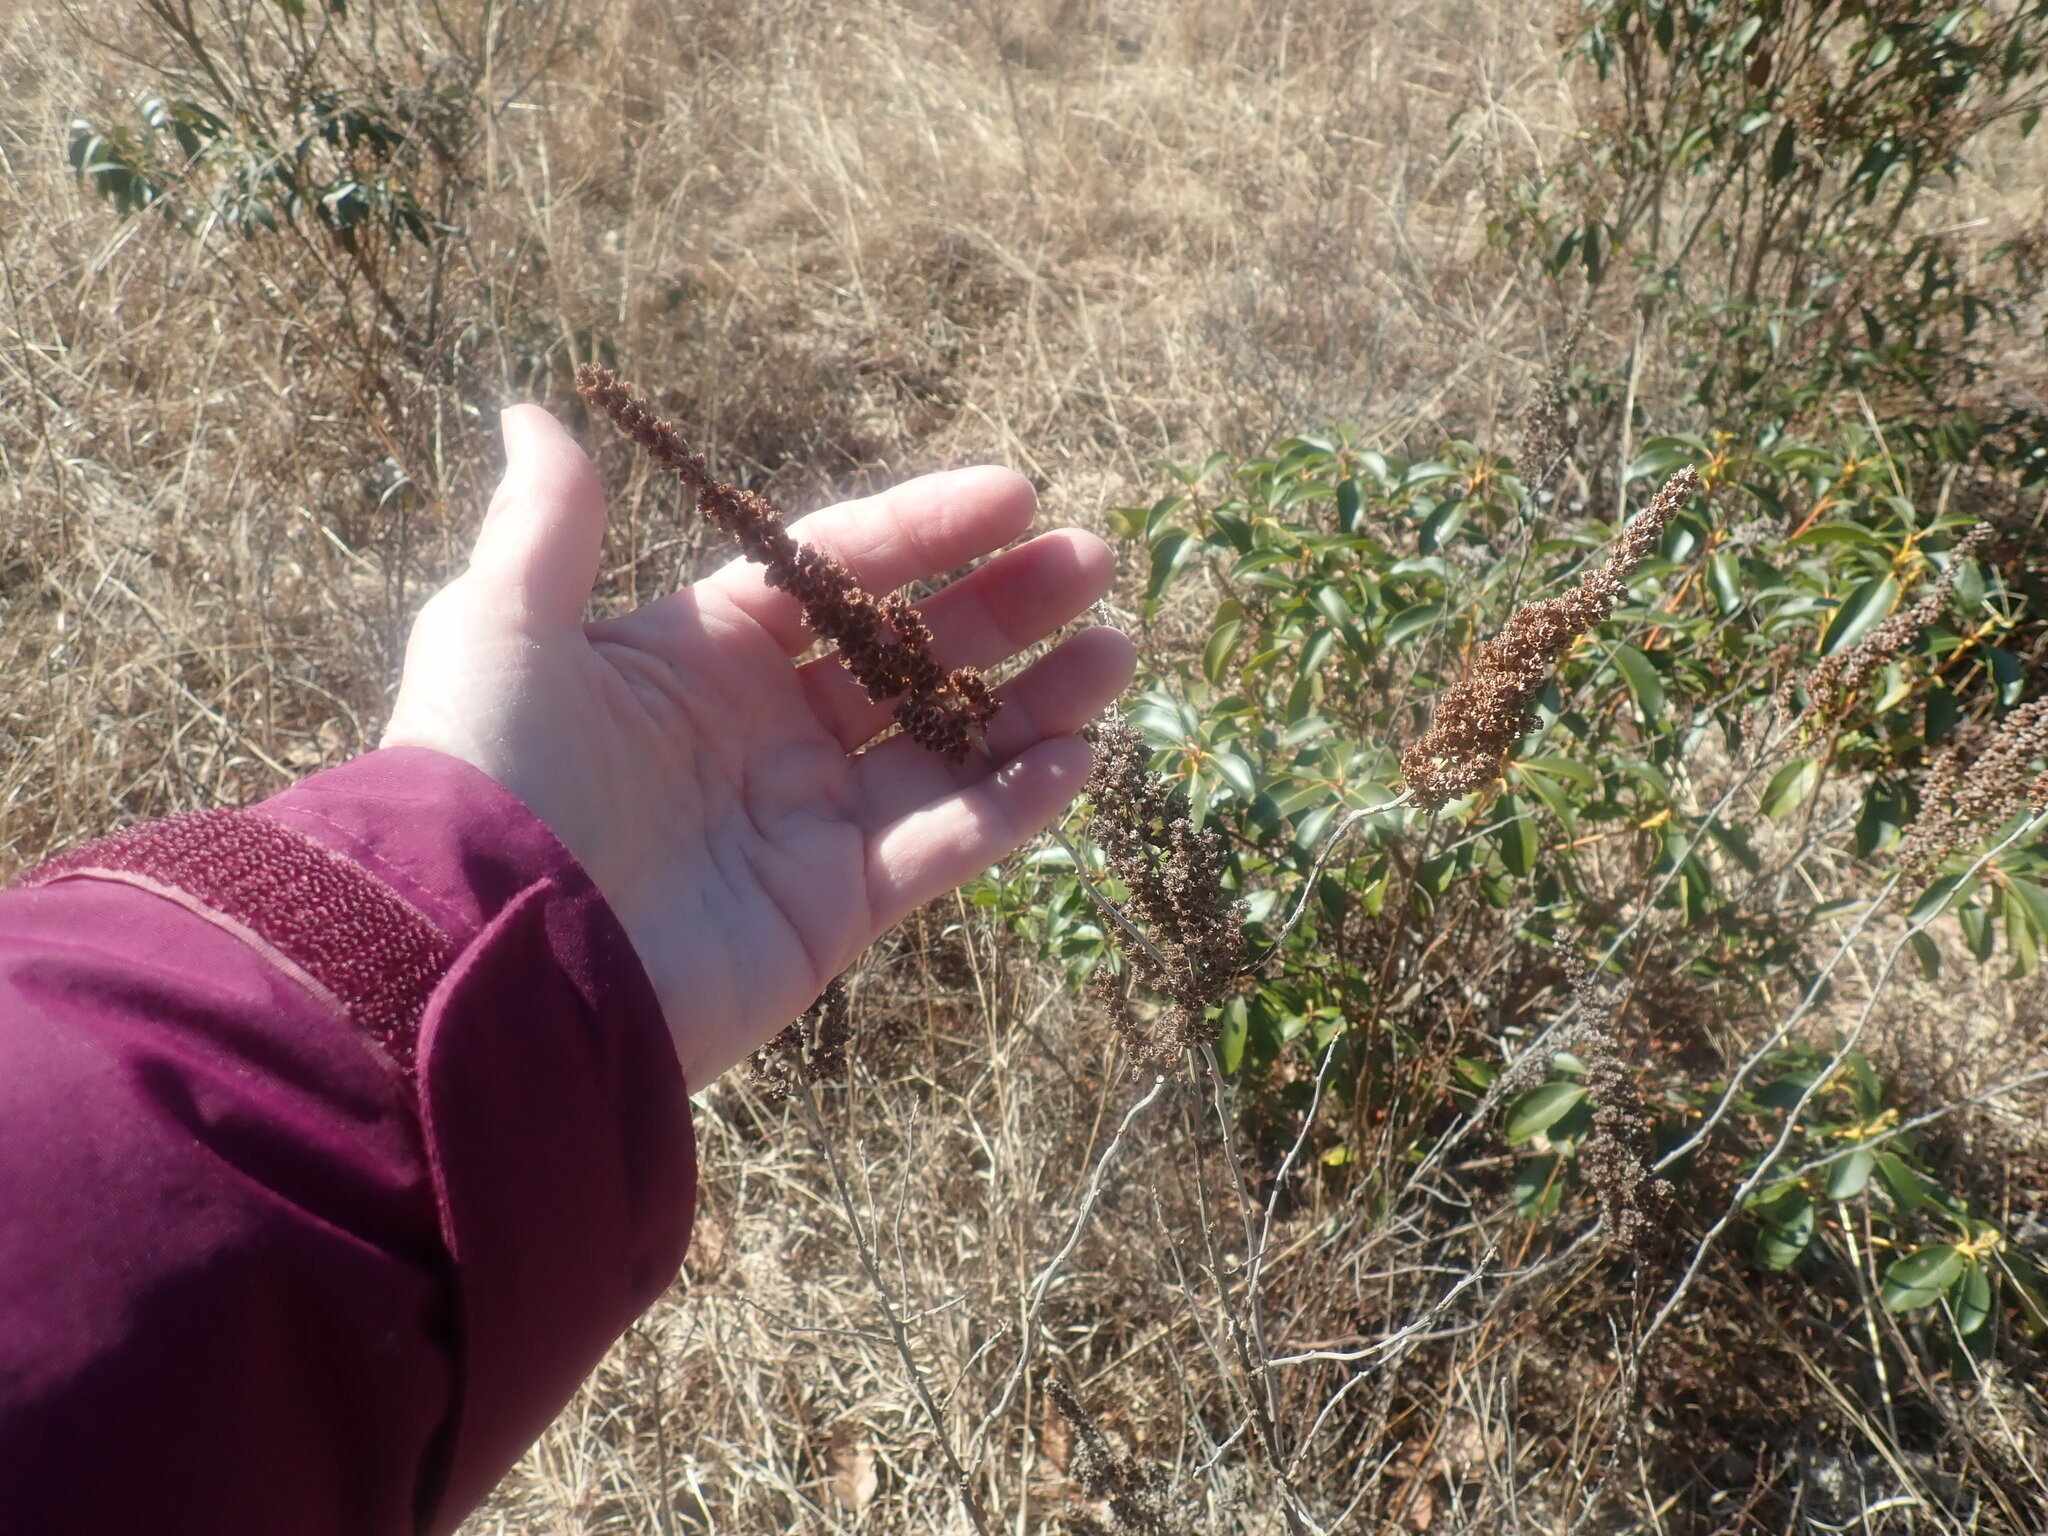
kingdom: Plantae
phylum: Tracheophyta
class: Magnoliopsida
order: Rosales
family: Rosaceae
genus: Spiraea
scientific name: Spiraea tomentosa
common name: Hardhack
